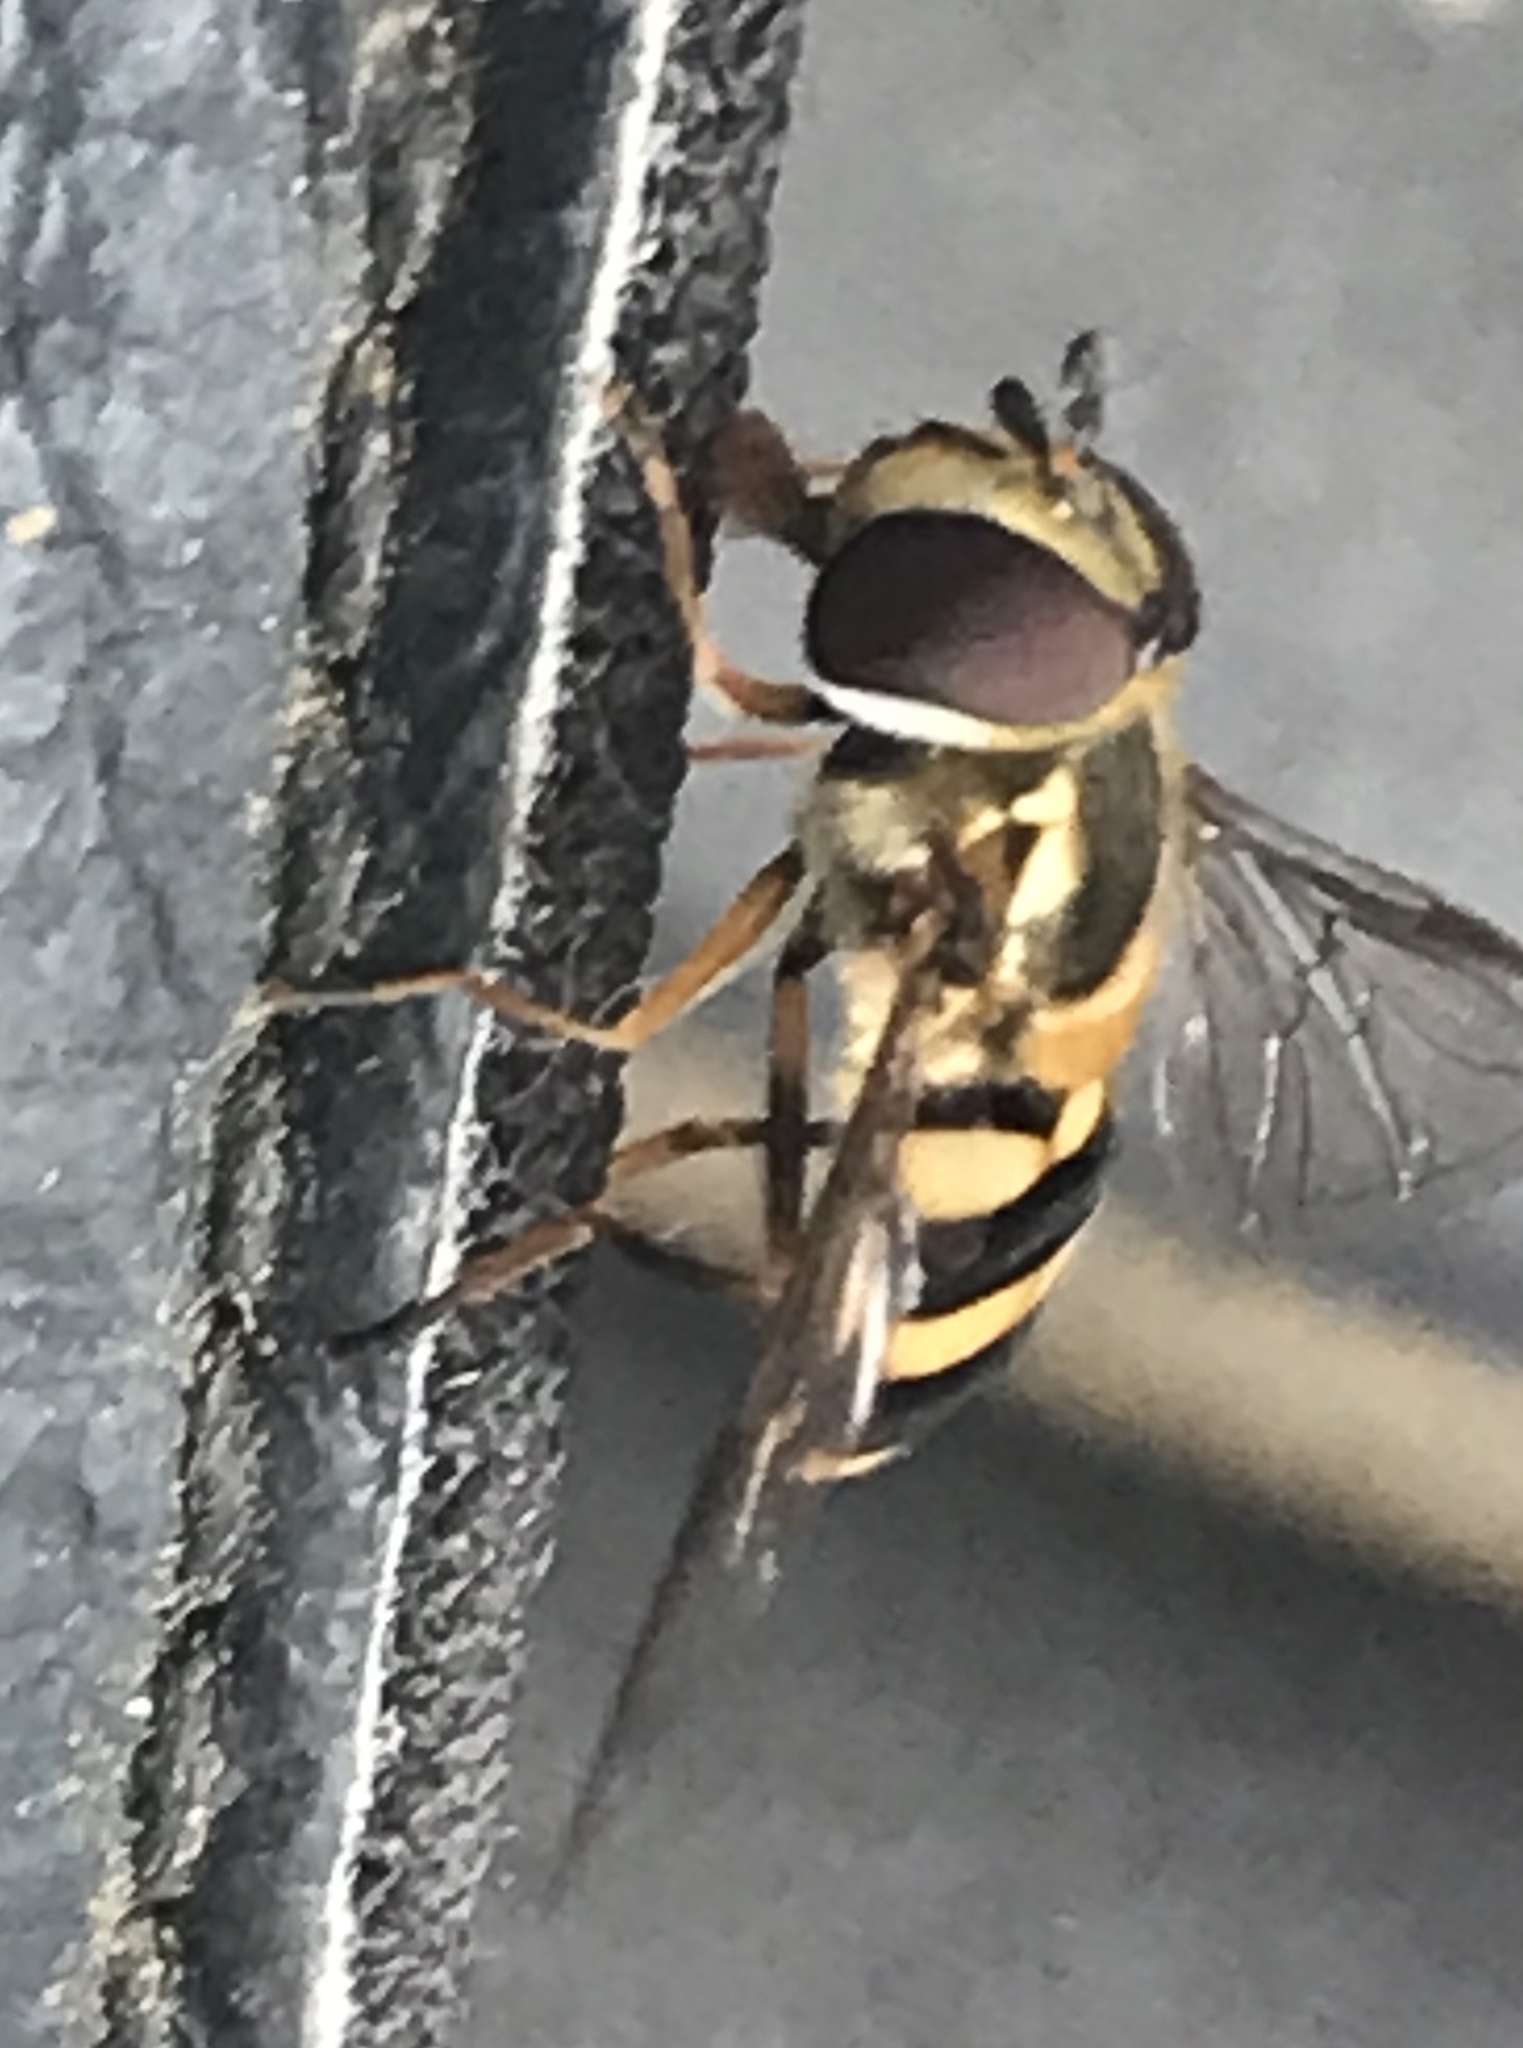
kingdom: Animalia
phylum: Arthropoda
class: Insecta
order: Diptera
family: Syrphidae
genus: Eupeodes
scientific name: Eupeodes
